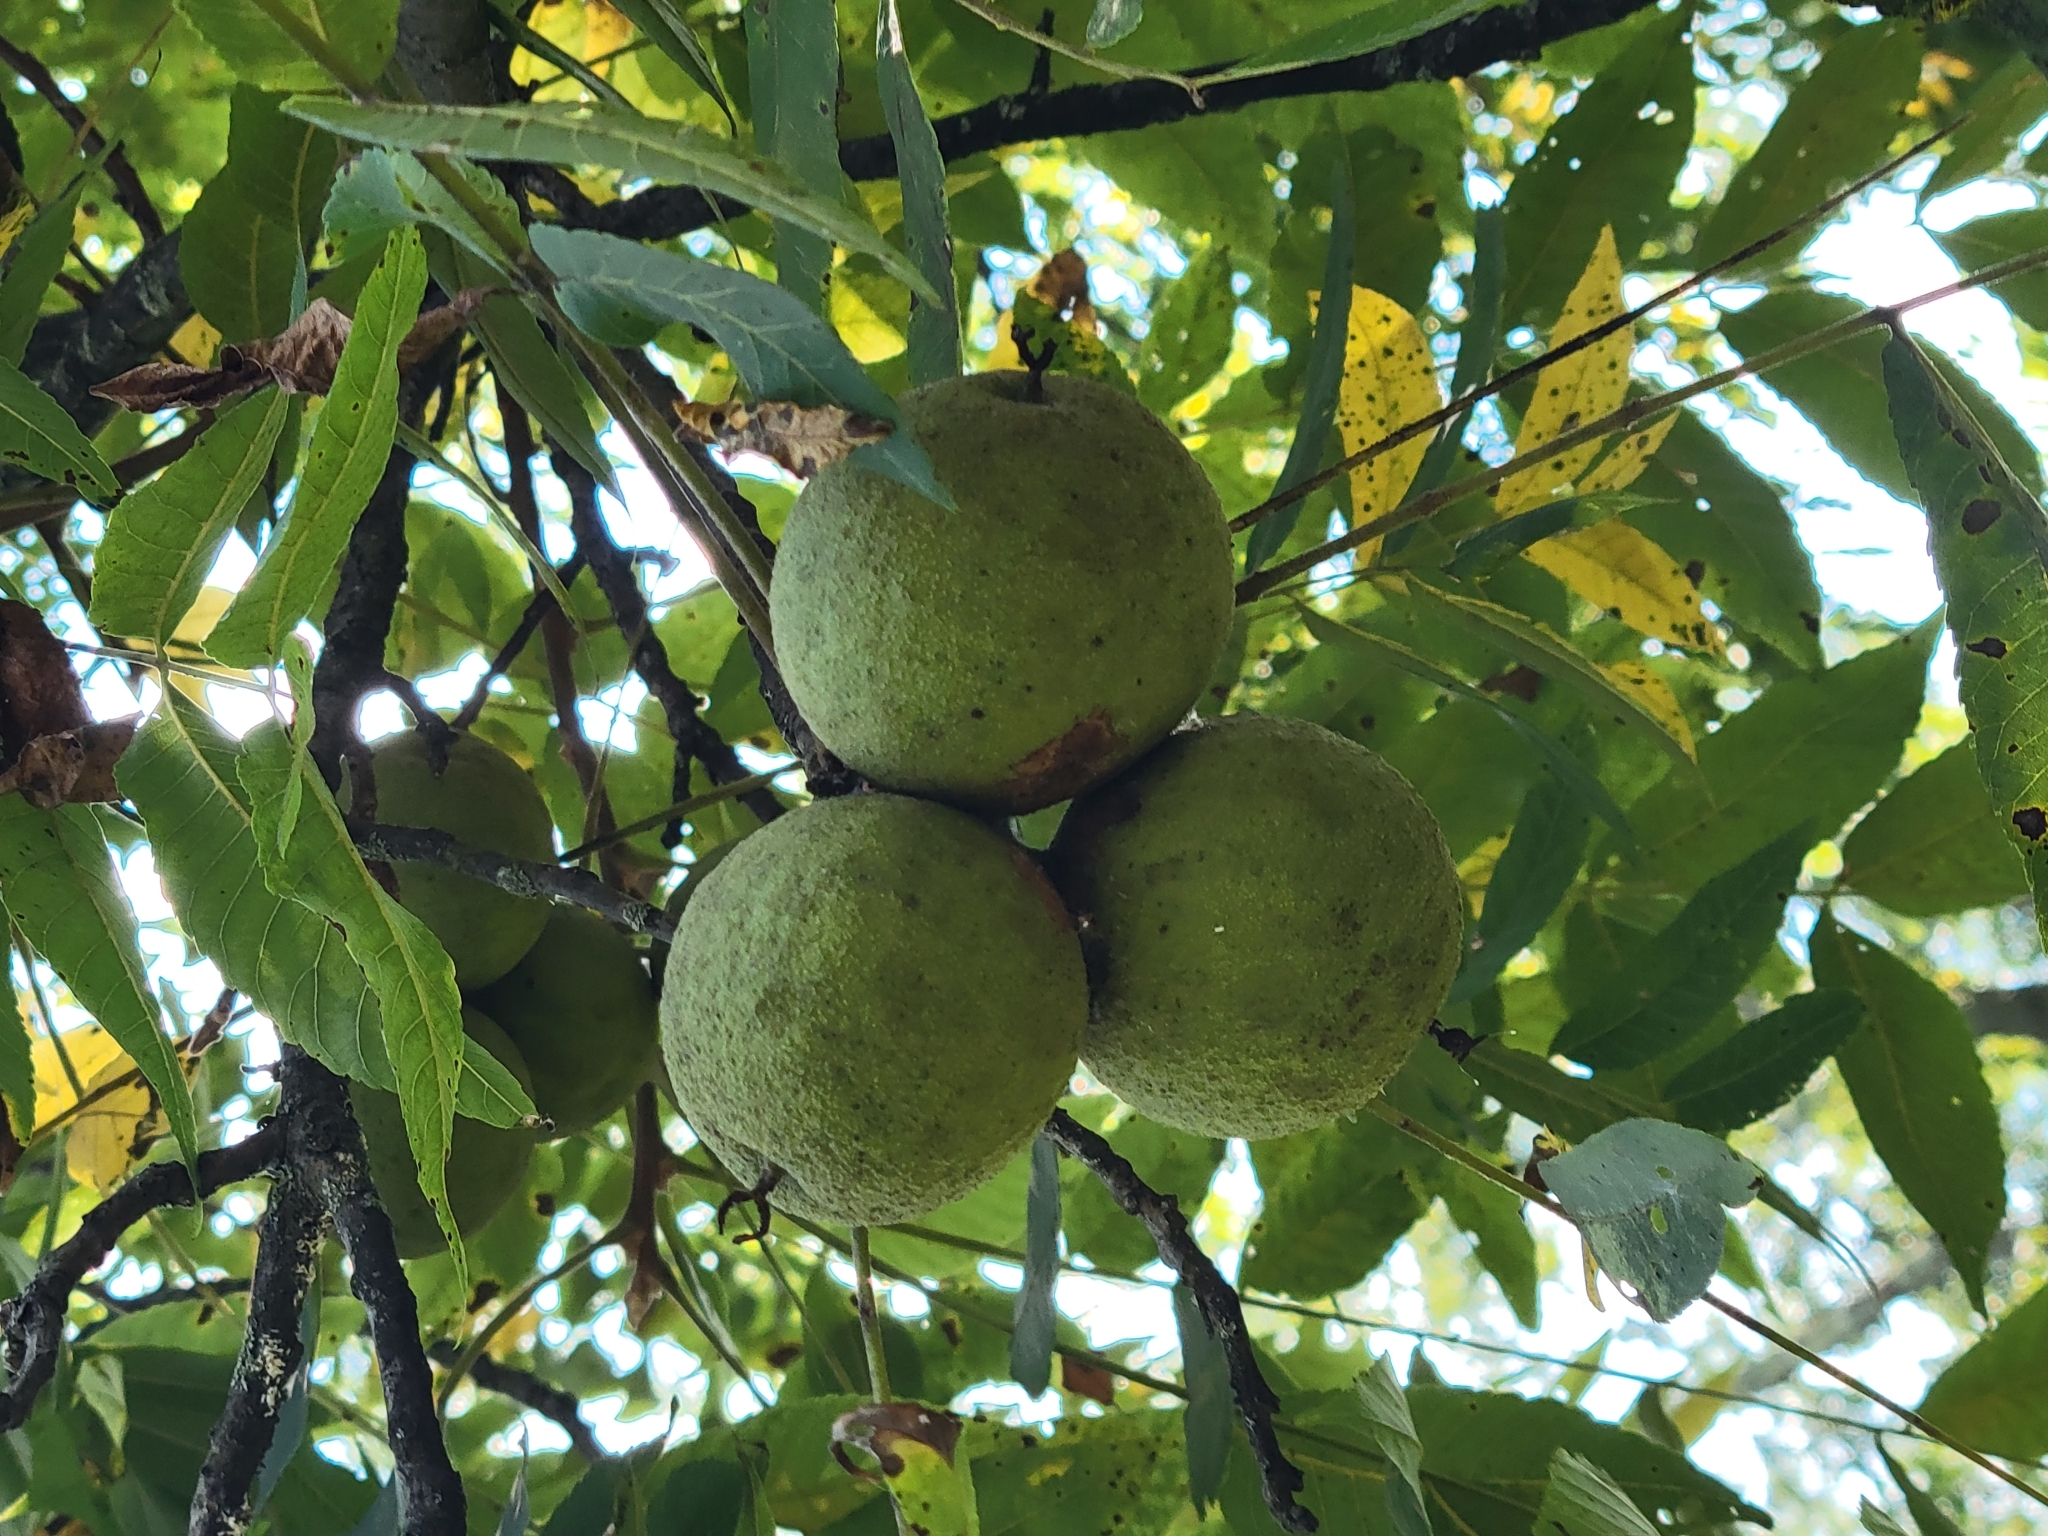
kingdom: Plantae
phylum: Tracheophyta
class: Magnoliopsida
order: Fagales
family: Juglandaceae
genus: Juglans
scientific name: Juglans nigra
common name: Black walnut
